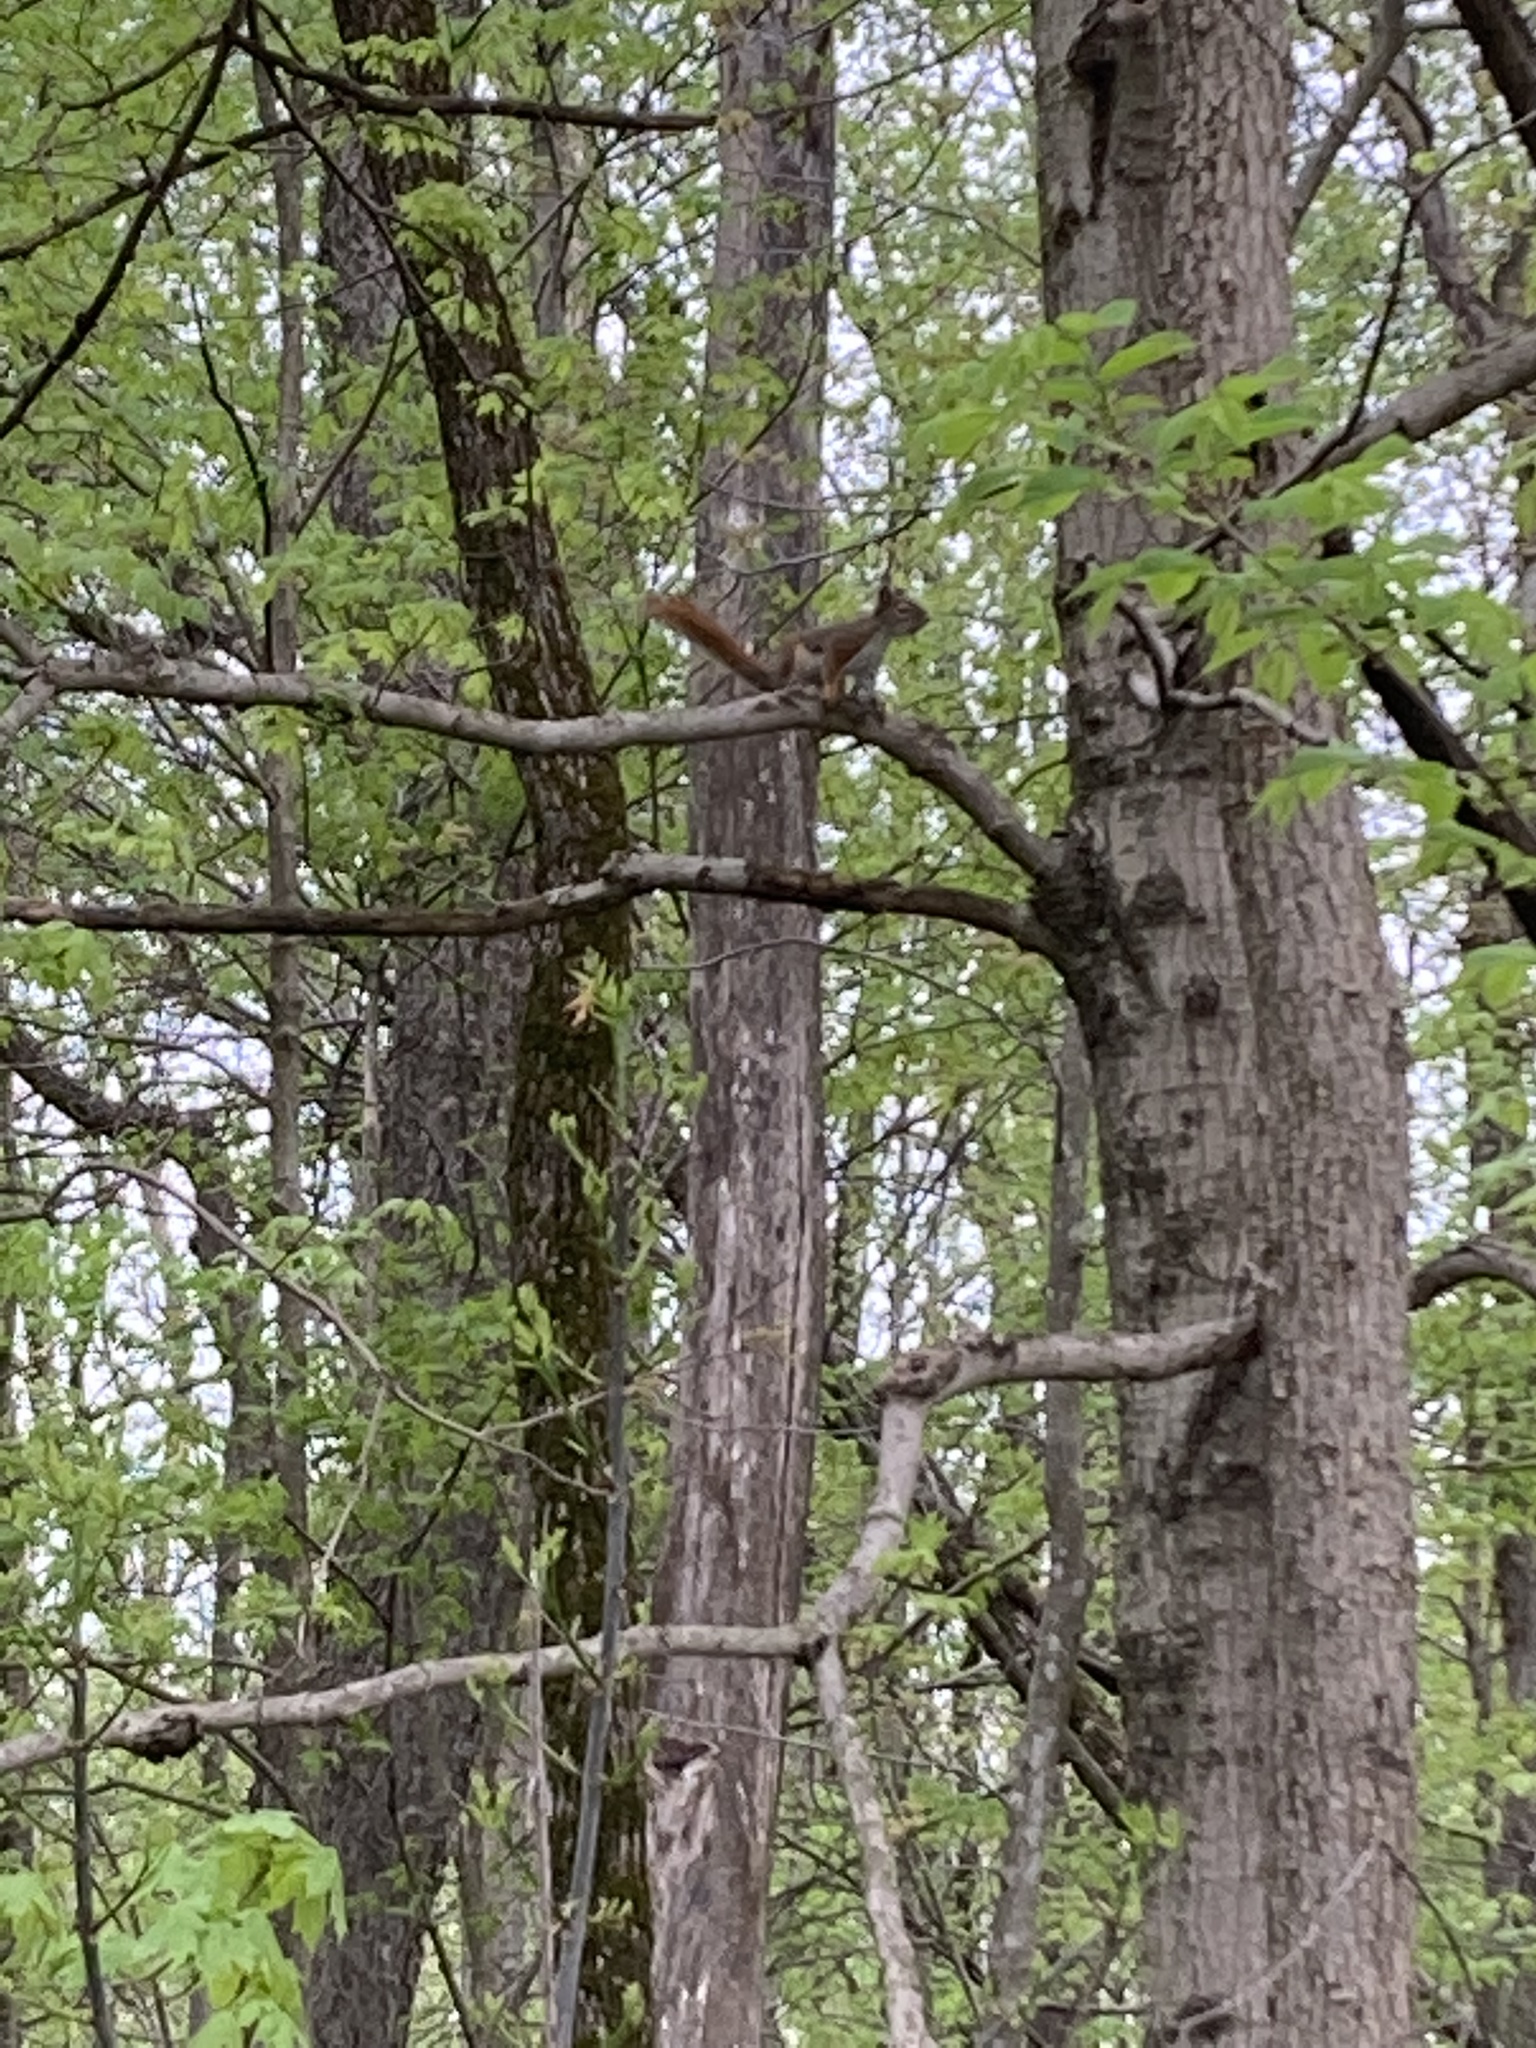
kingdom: Animalia
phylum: Chordata
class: Mammalia
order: Rodentia
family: Sciuridae
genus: Tamiasciurus
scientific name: Tamiasciurus hudsonicus
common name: Red squirrel
